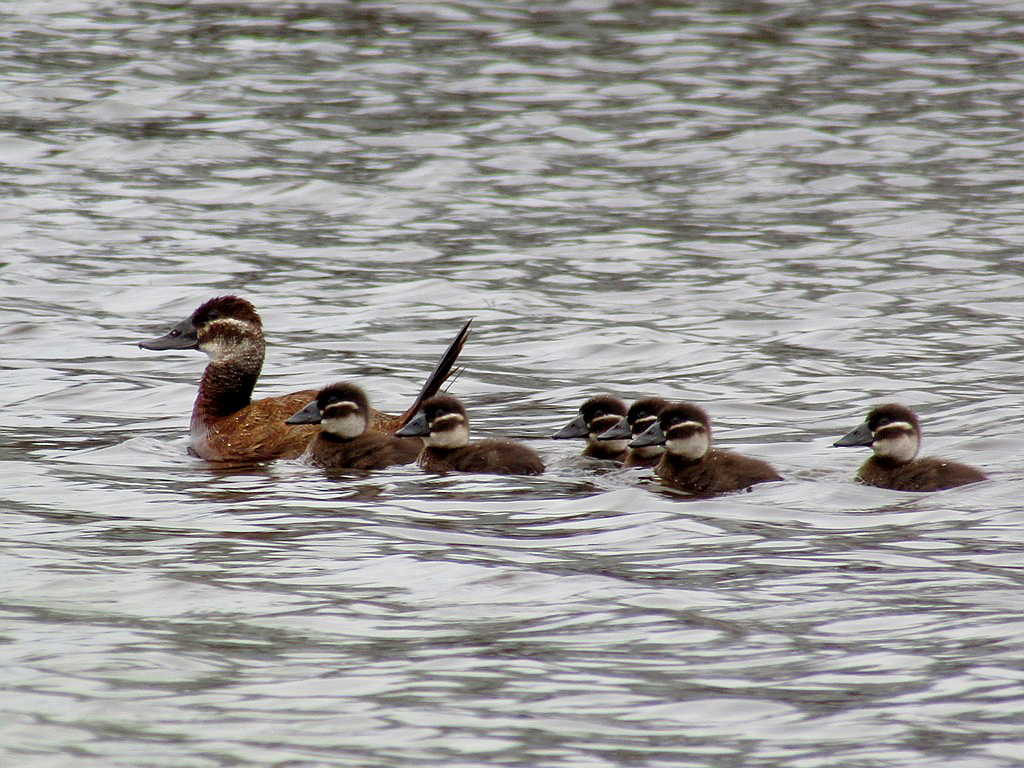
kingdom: Animalia
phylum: Chordata
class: Aves
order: Anseriformes
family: Anatidae
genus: Oxyura
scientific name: Oxyura leucocephala
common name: White-headed duck
